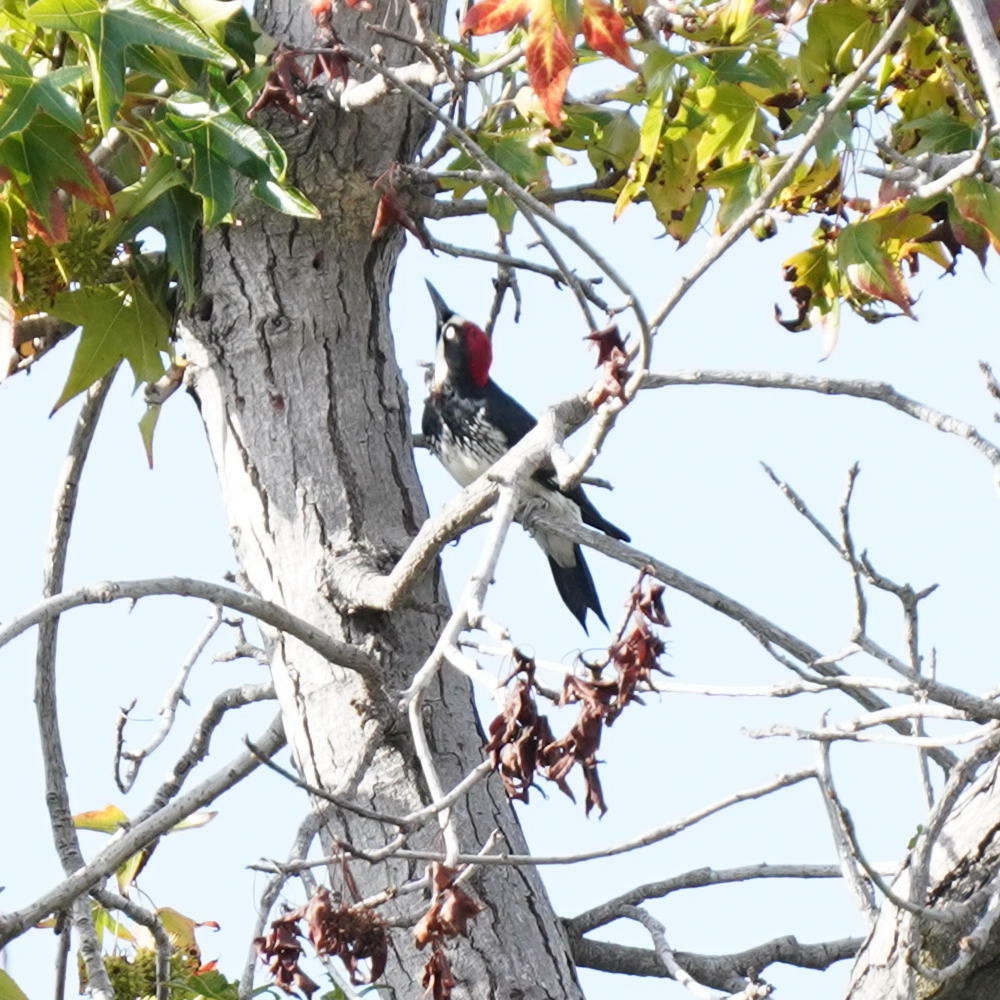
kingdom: Animalia
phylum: Chordata
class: Aves
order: Piciformes
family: Picidae
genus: Melanerpes
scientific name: Melanerpes formicivorus
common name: Acorn woodpecker
